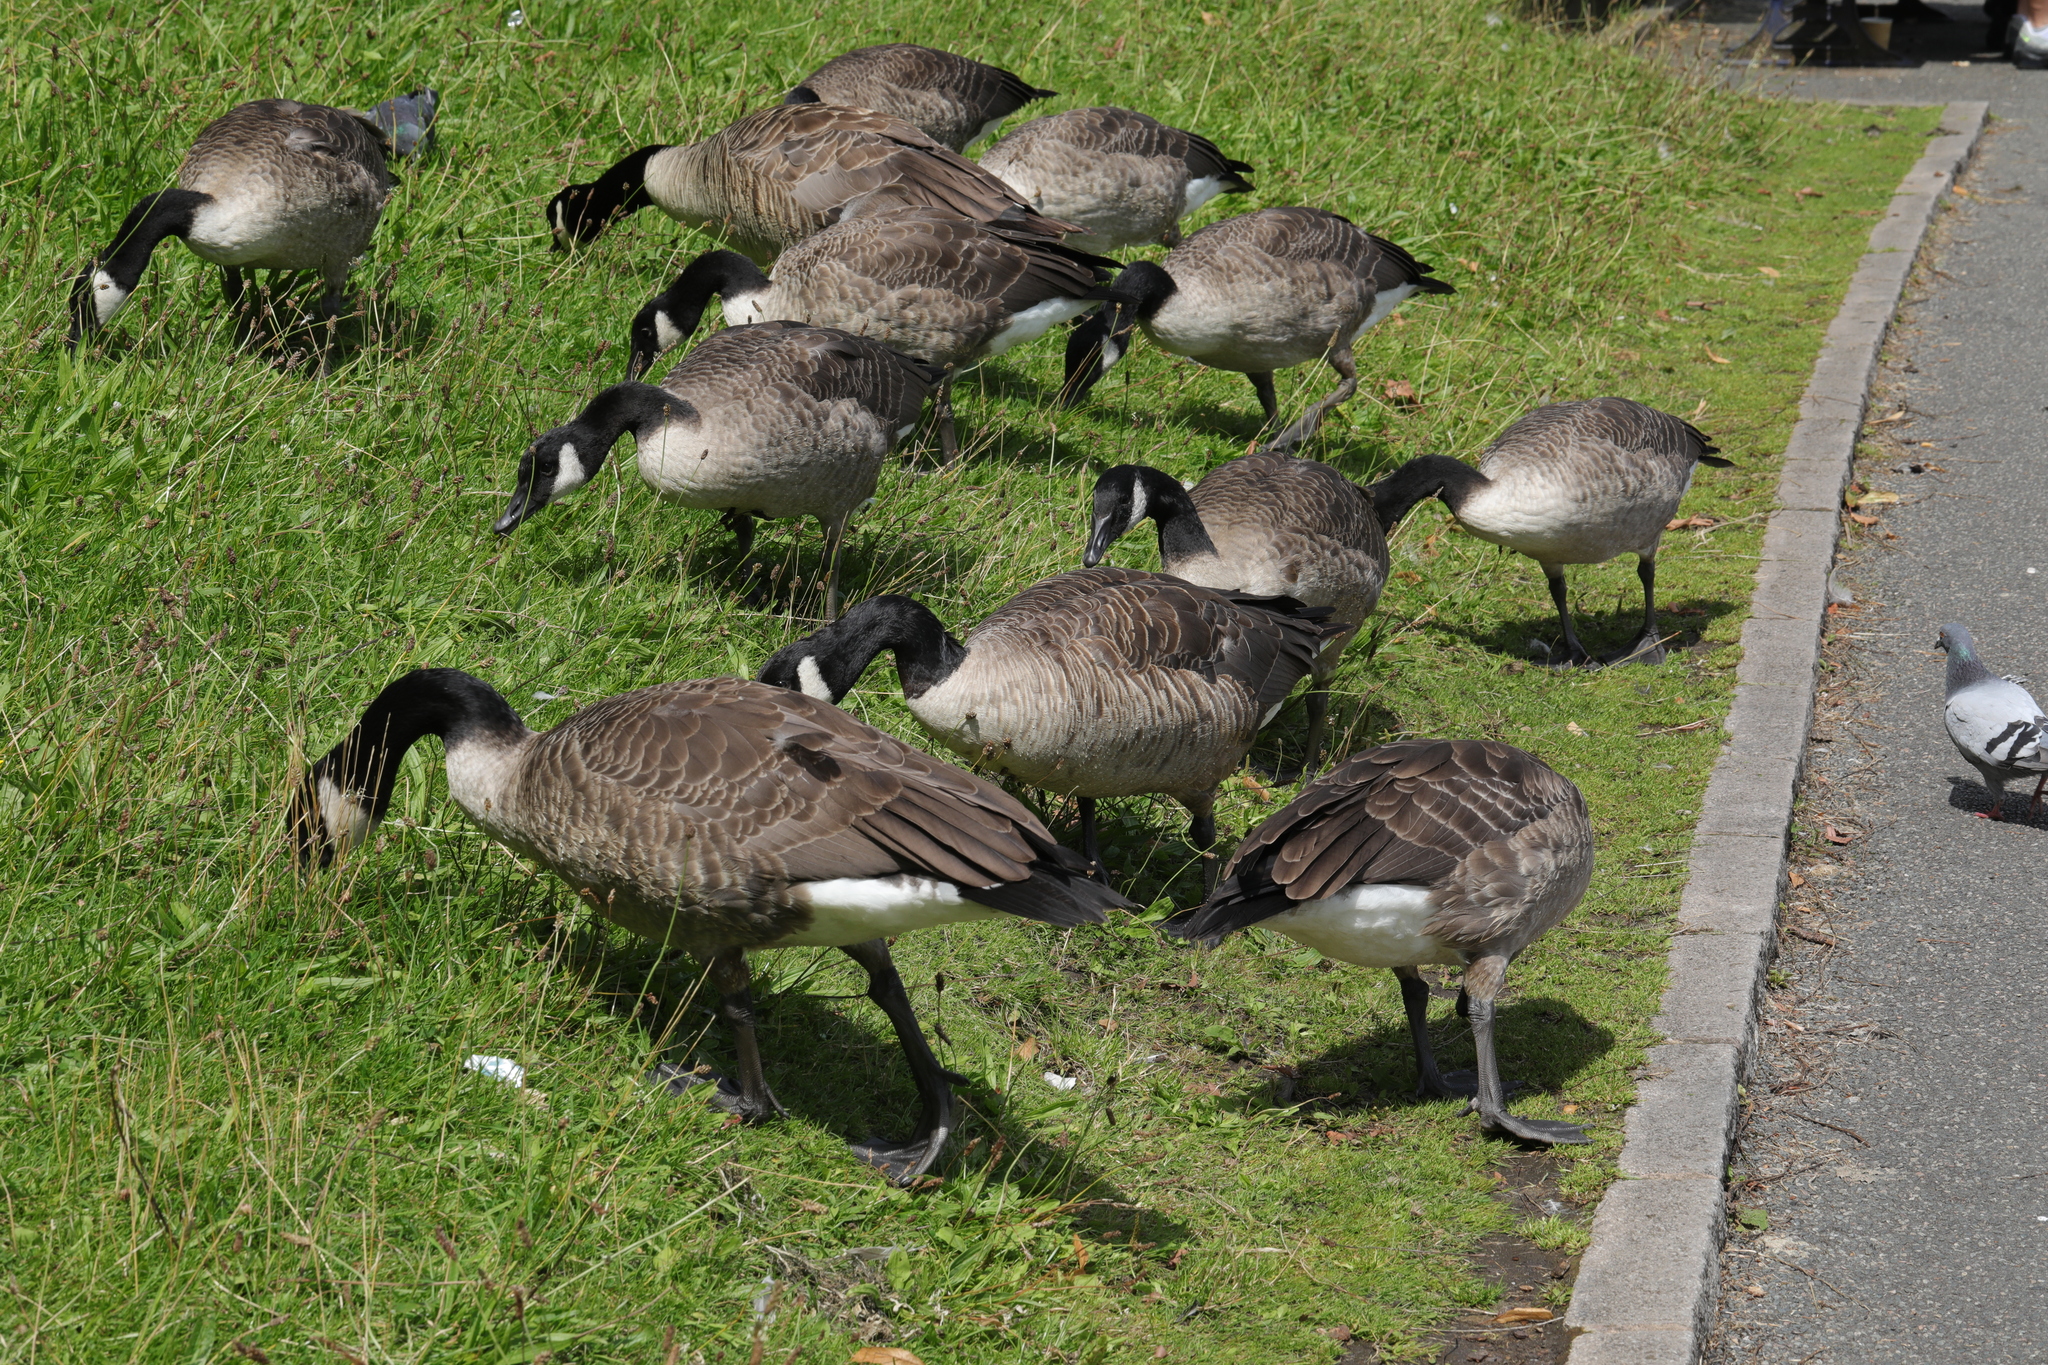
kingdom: Animalia
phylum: Chordata
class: Aves
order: Anseriformes
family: Anatidae
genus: Branta
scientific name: Branta canadensis
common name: Canada goose
